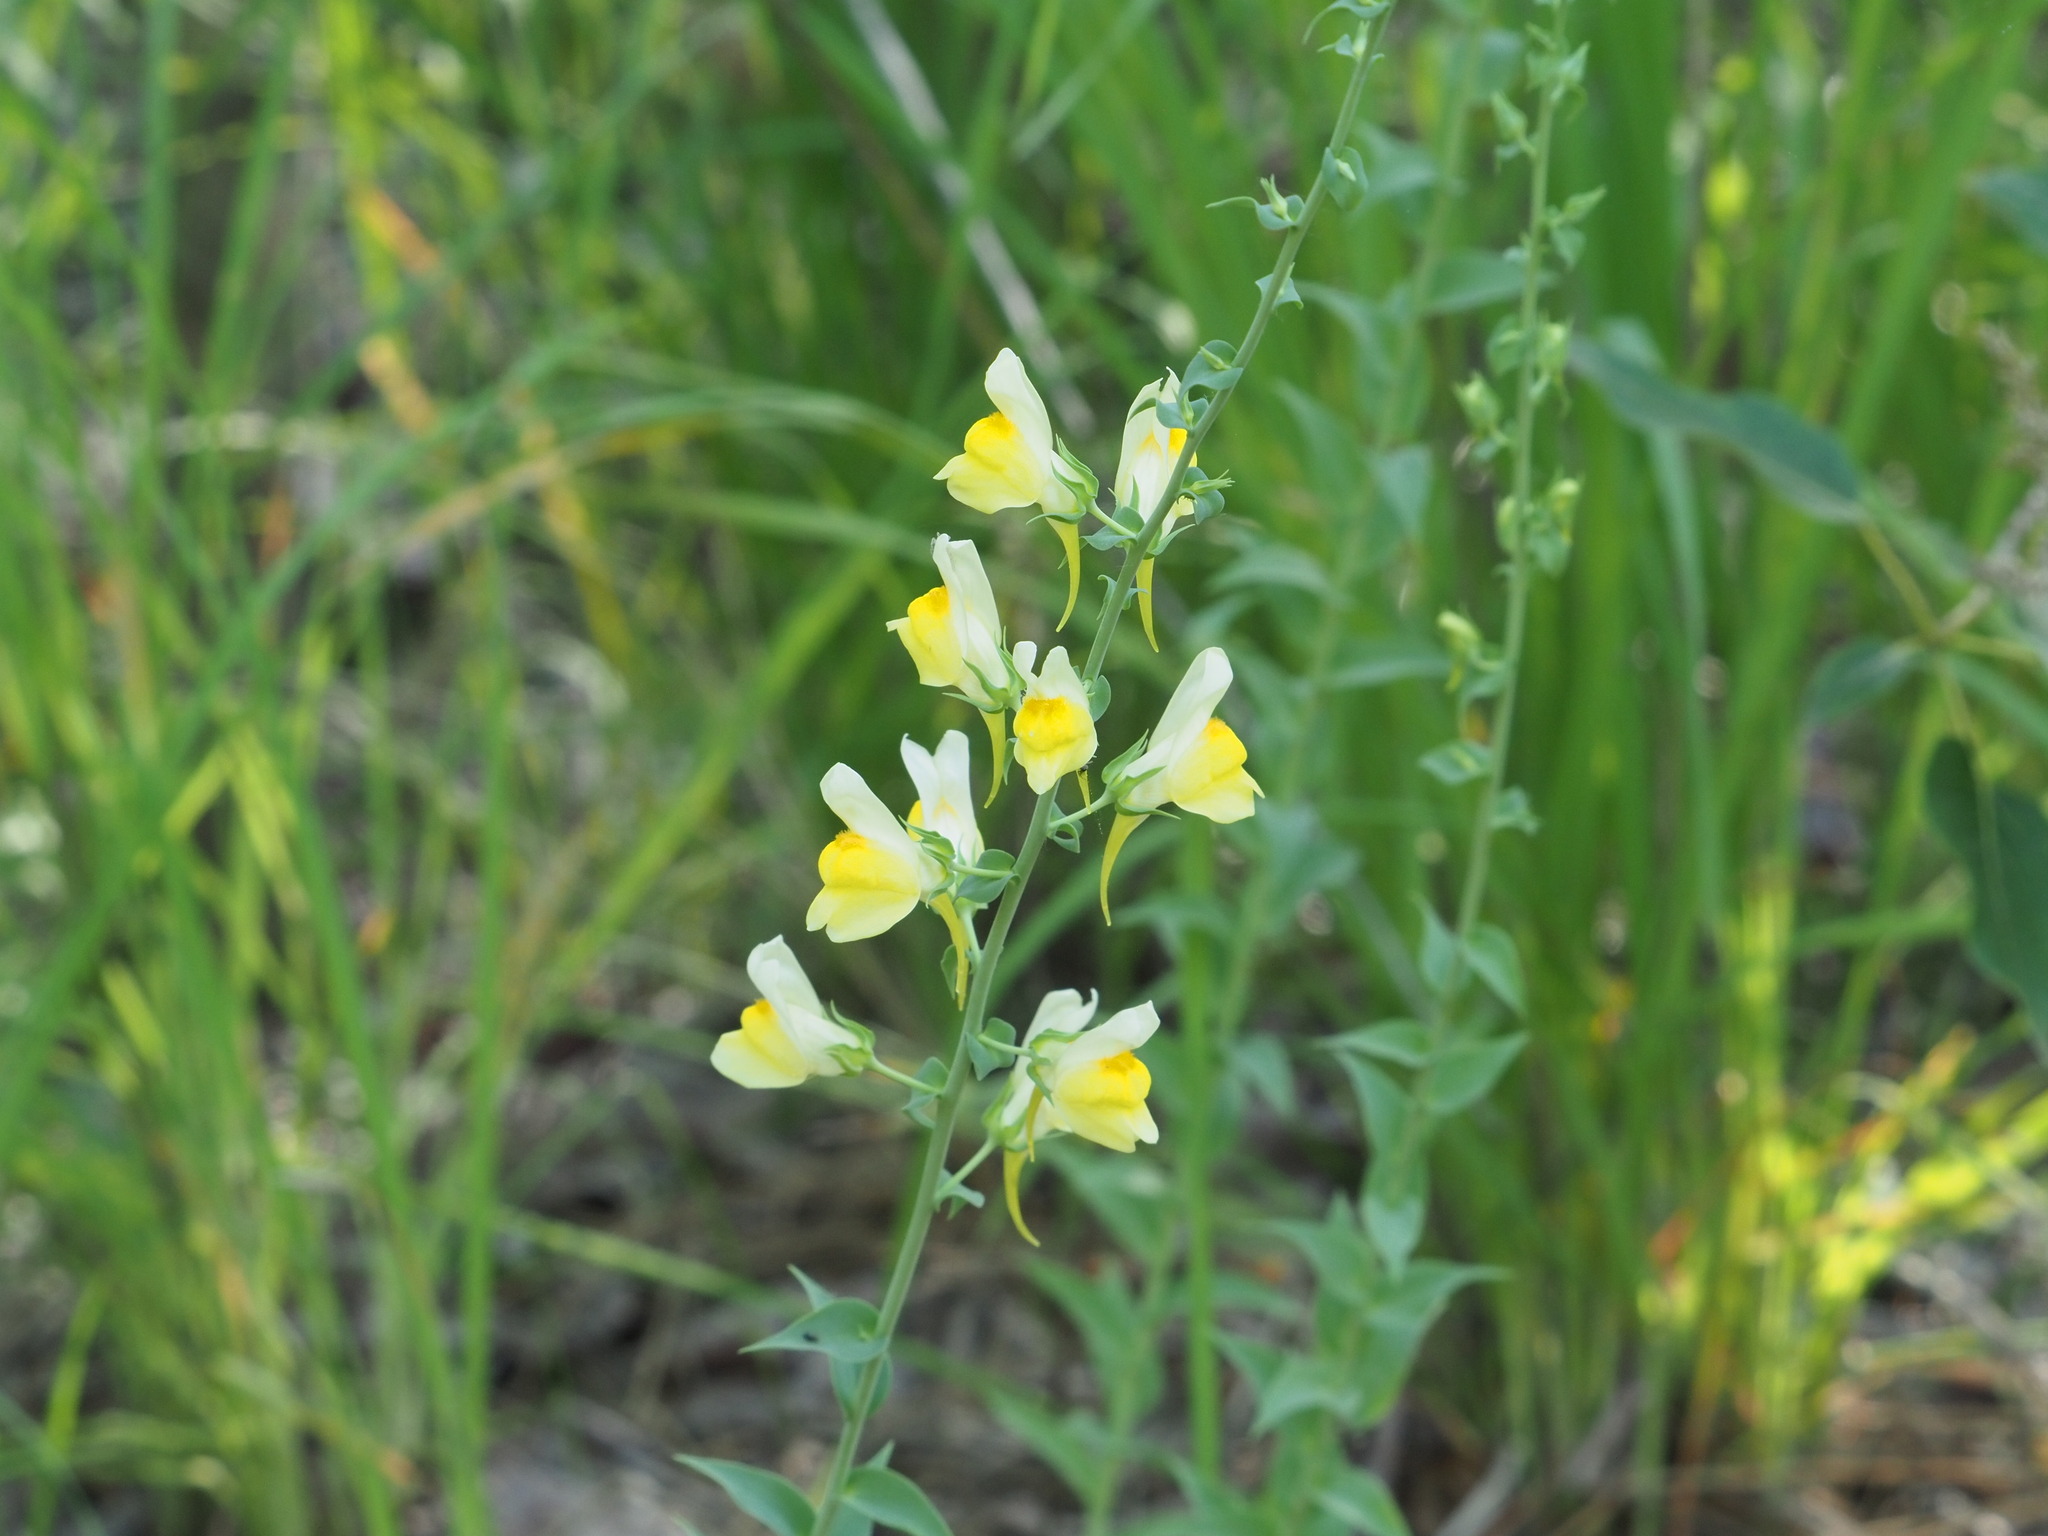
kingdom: Plantae
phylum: Tracheophyta
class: Magnoliopsida
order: Lamiales
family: Plantaginaceae
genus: Linaria
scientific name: Linaria dalmatica
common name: Dalmatian toadflax
